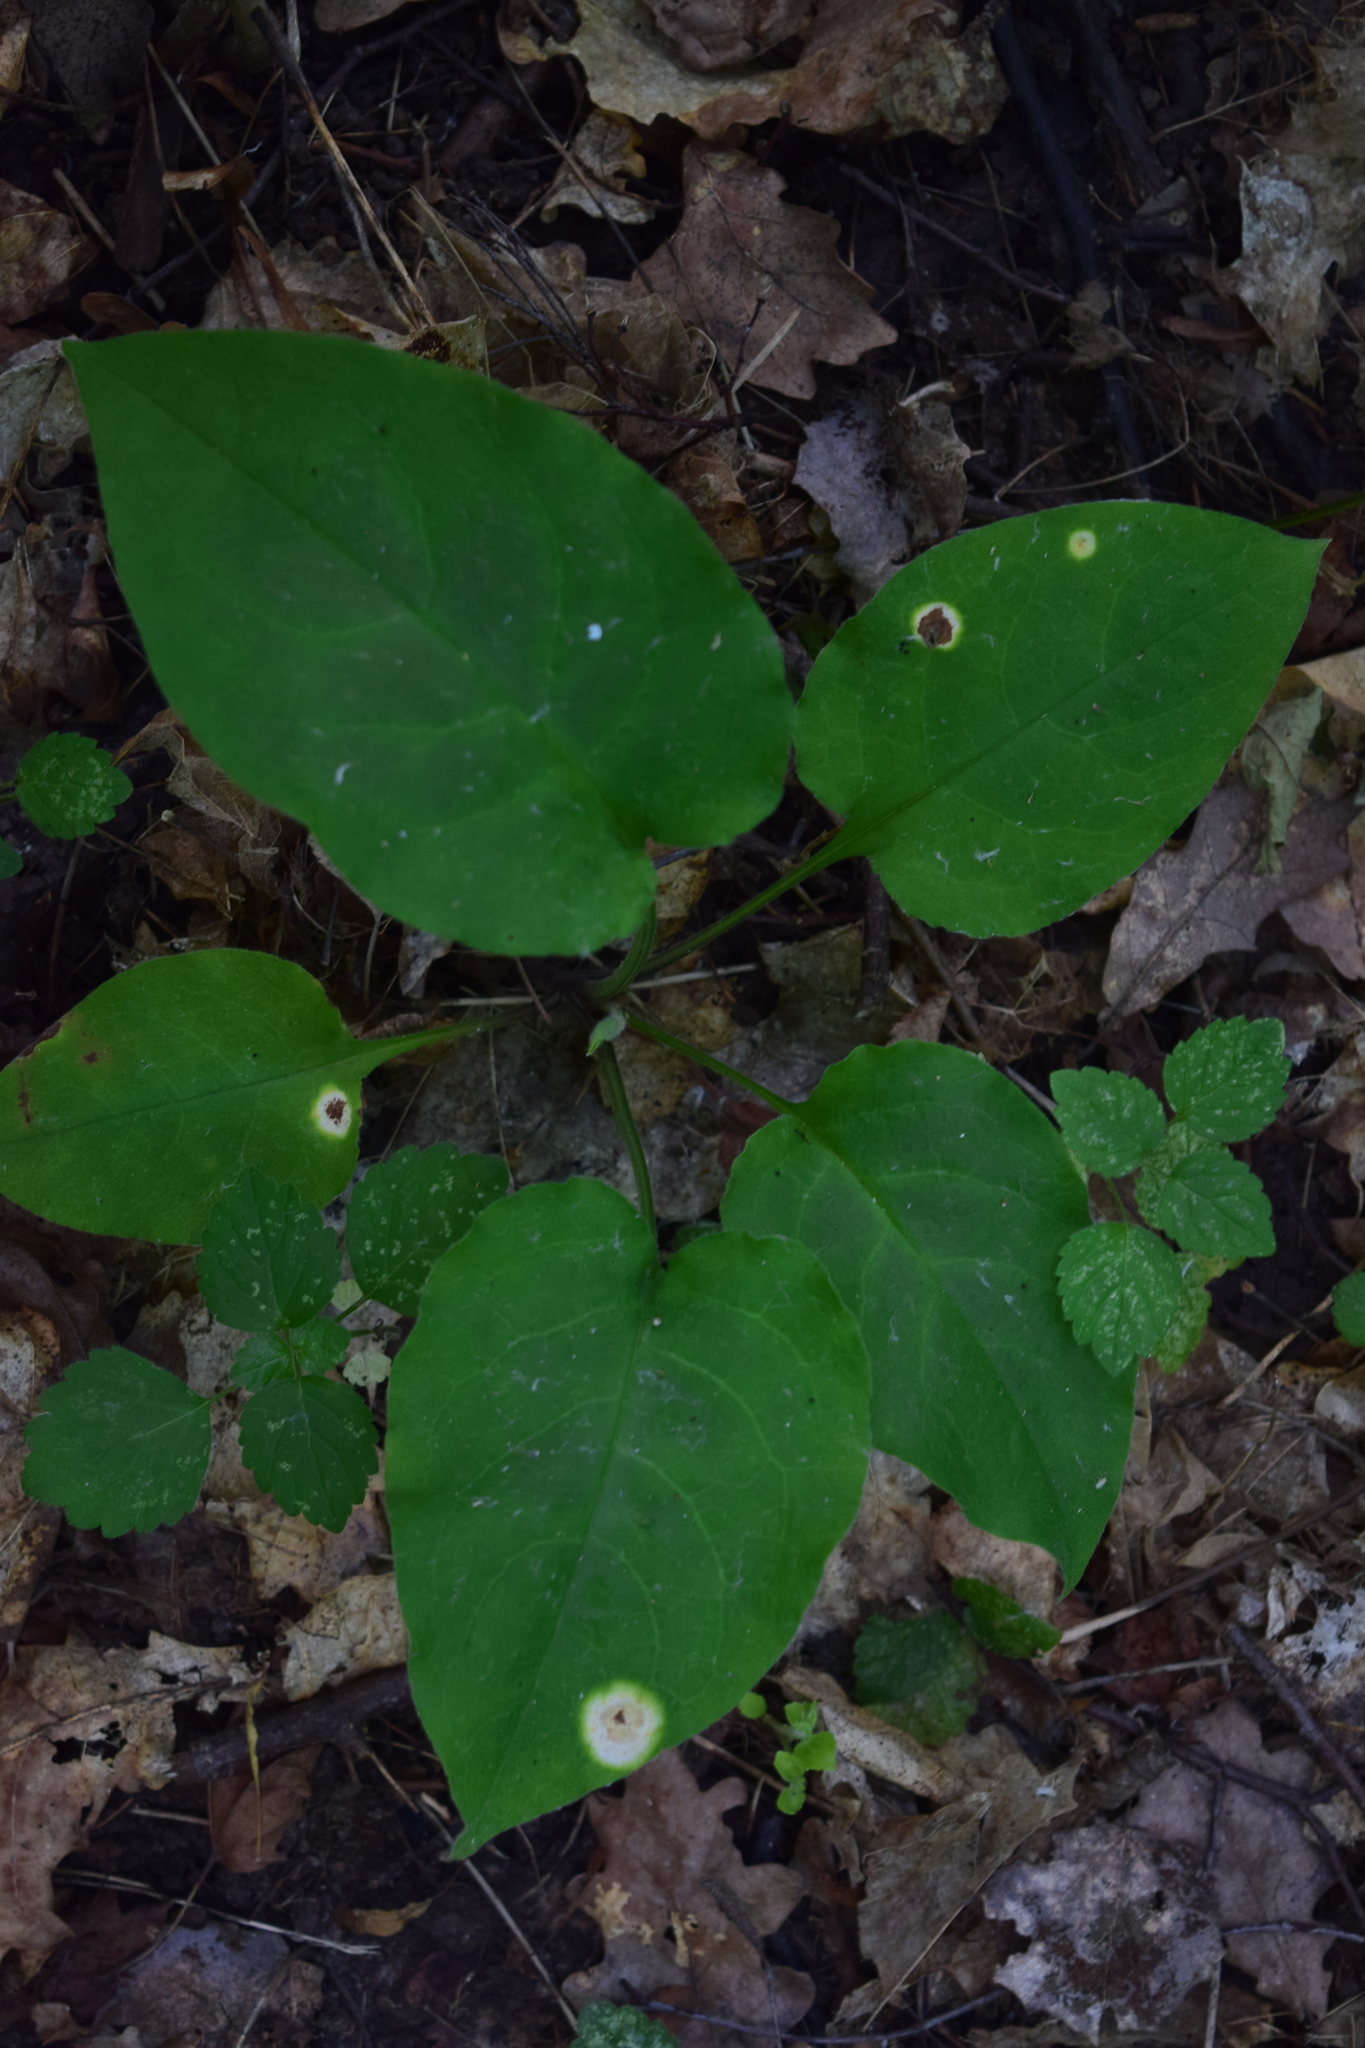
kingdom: Plantae
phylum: Tracheophyta
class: Magnoliopsida
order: Boraginales
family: Boraginaceae
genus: Pulmonaria
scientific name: Pulmonaria obscura
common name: Suffolk lungwort
